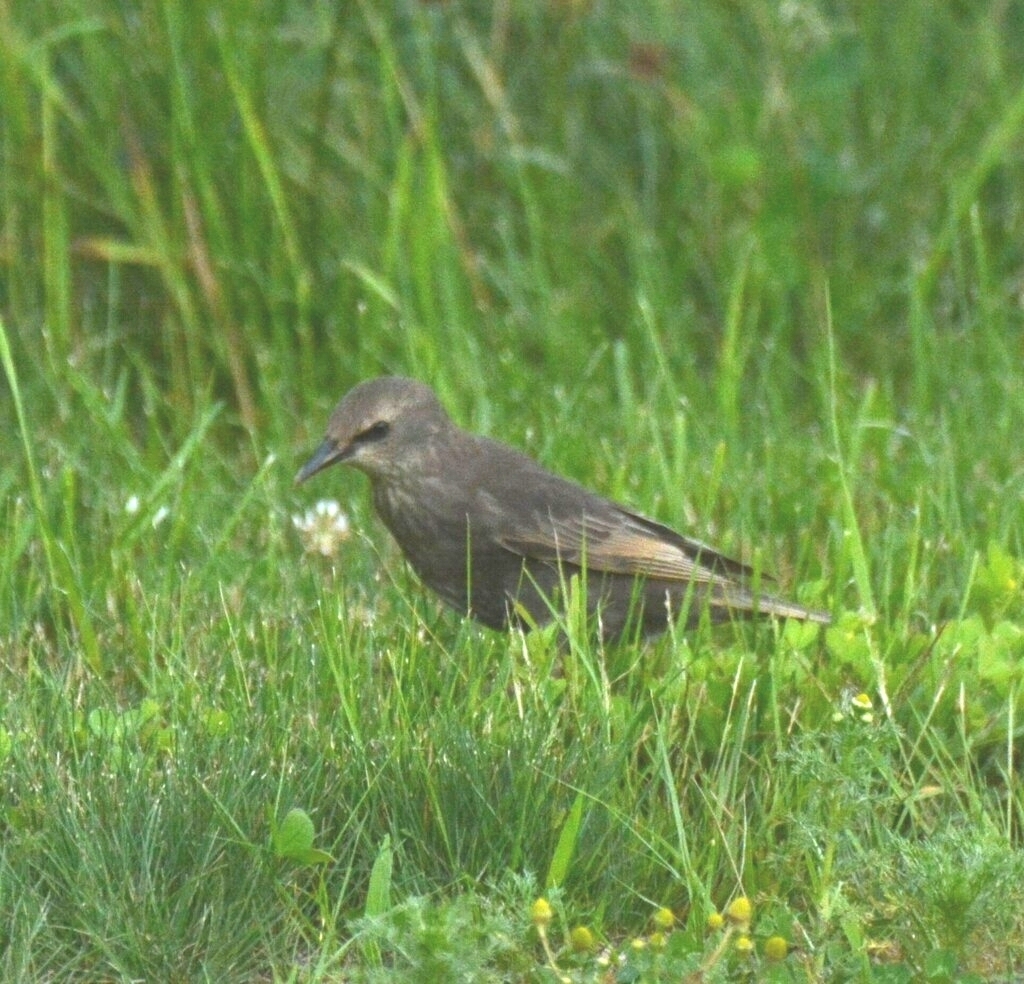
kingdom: Animalia
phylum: Chordata
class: Aves
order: Passeriformes
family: Sturnidae
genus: Sturnus
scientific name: Sturnus vulgaris
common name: Common starling
